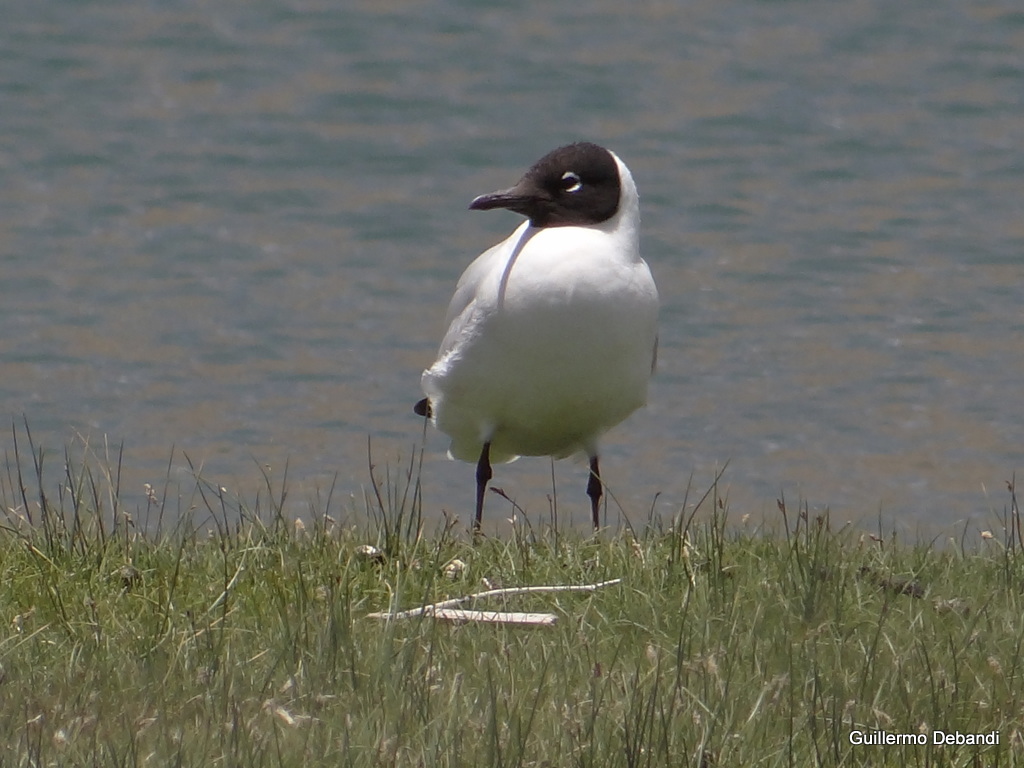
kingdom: Animalia
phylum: Chordata
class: Aves
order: Charadriiformes
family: Laridae
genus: Chroicocephalus
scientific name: Chroicocephalus serranus
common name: Andean gull
